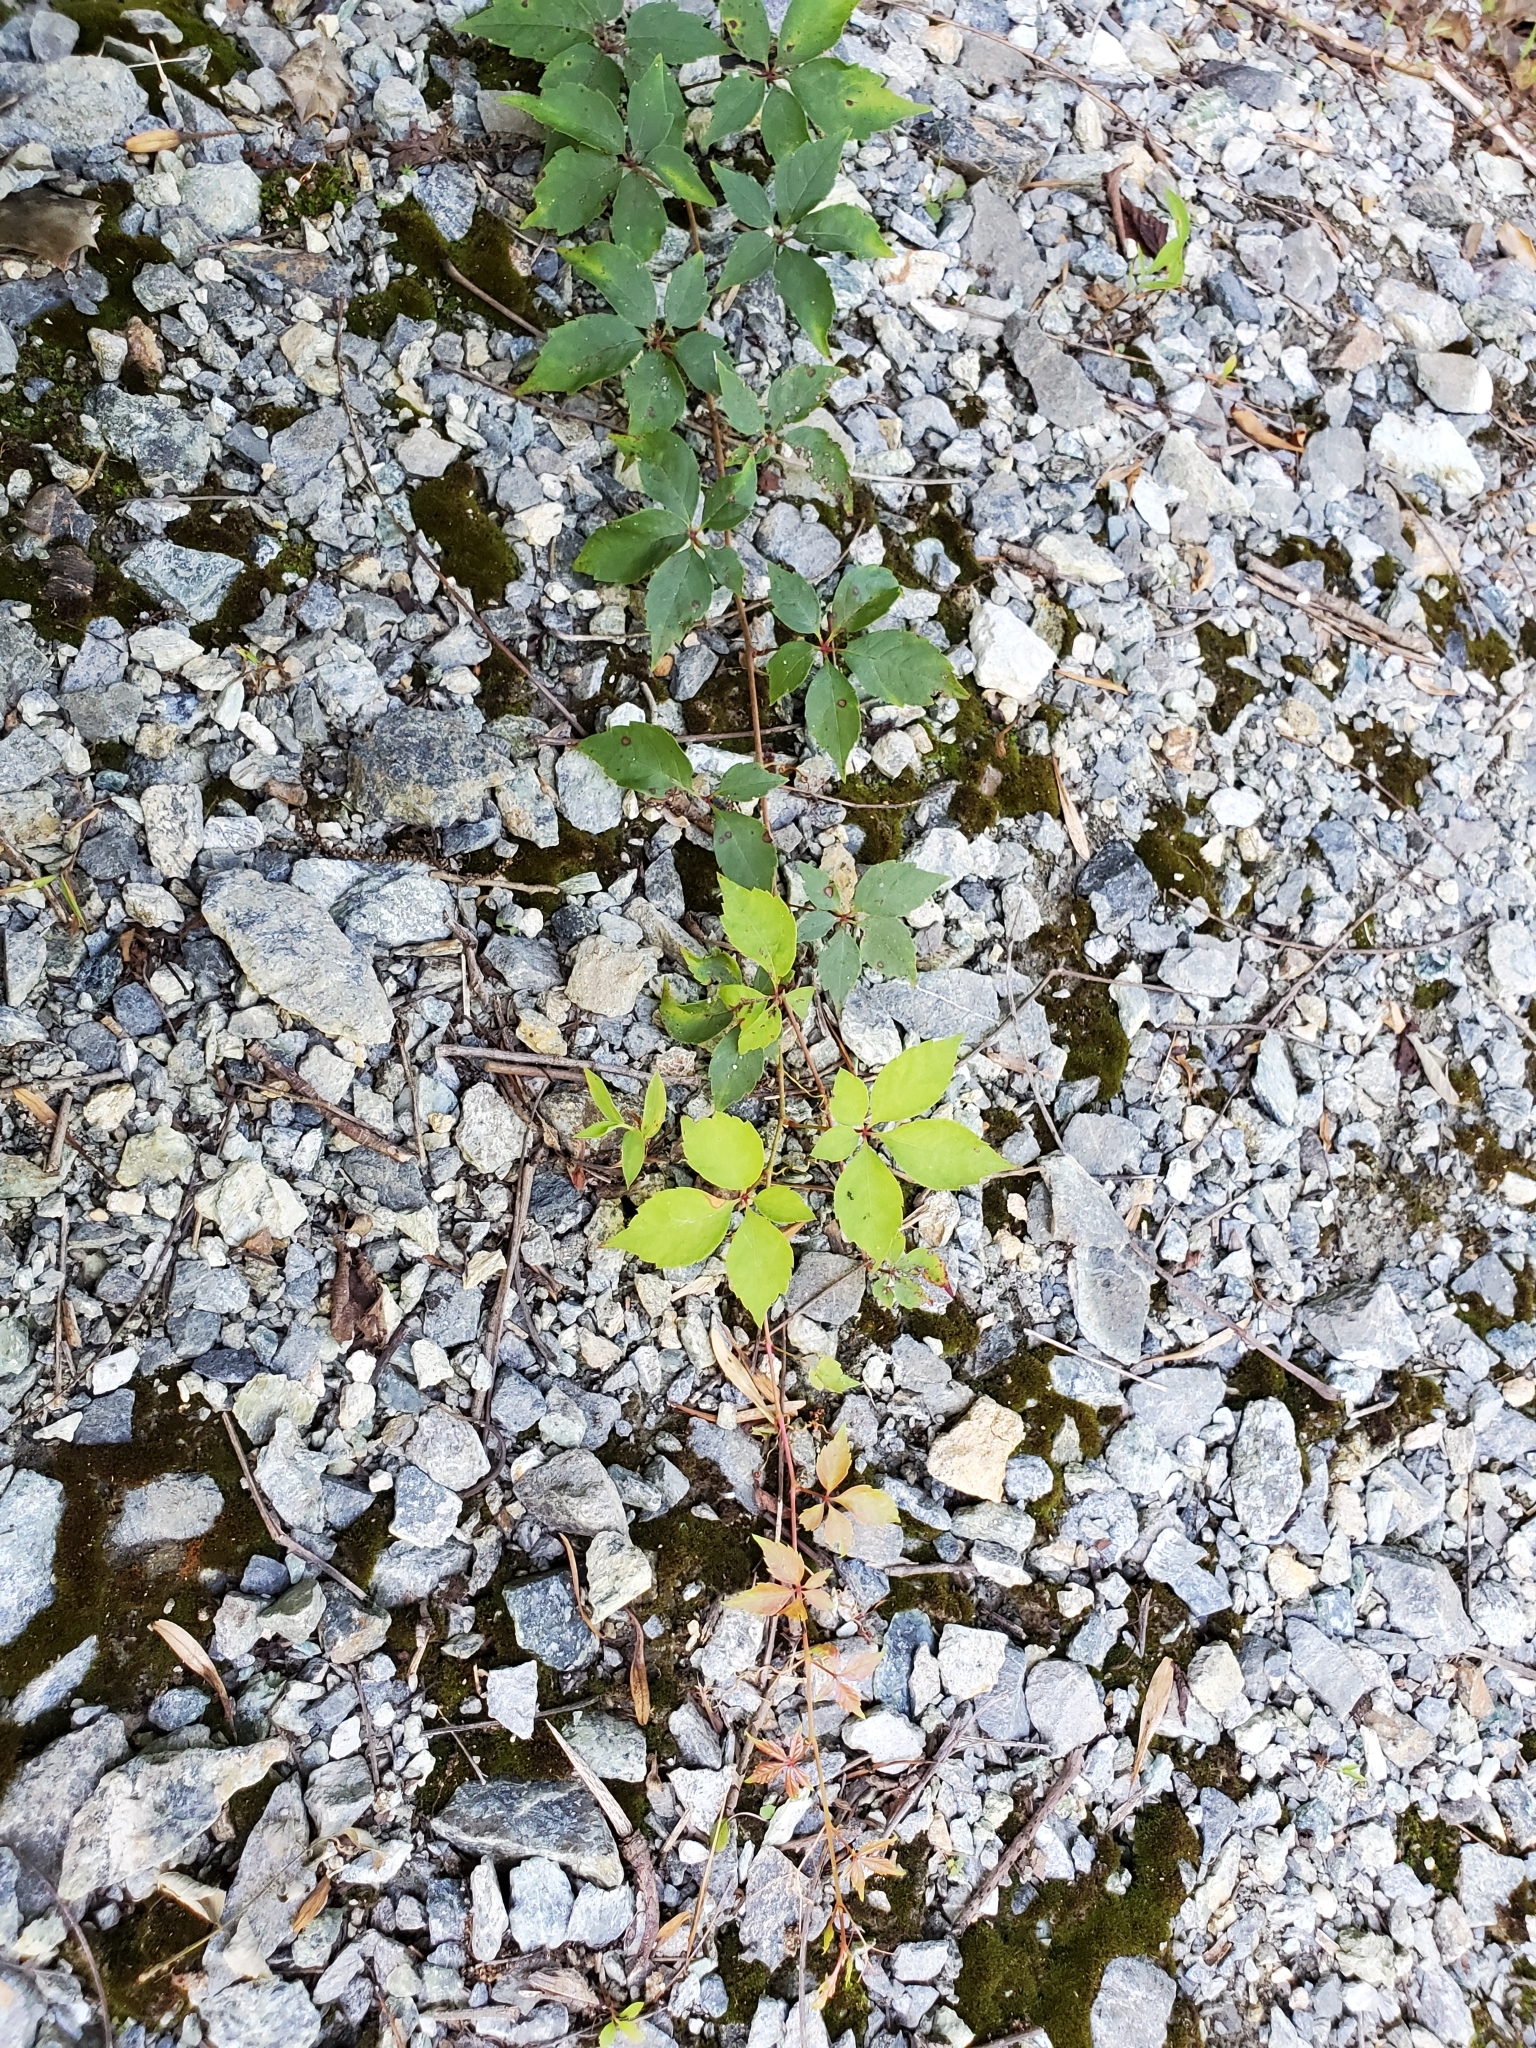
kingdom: Plantae
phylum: Tracheophyta
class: Magnoliopsida
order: Vitales
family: Vitaceae
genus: Parthenocissus
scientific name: Parthenocissus quinquefolia
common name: Virginia-creeper
